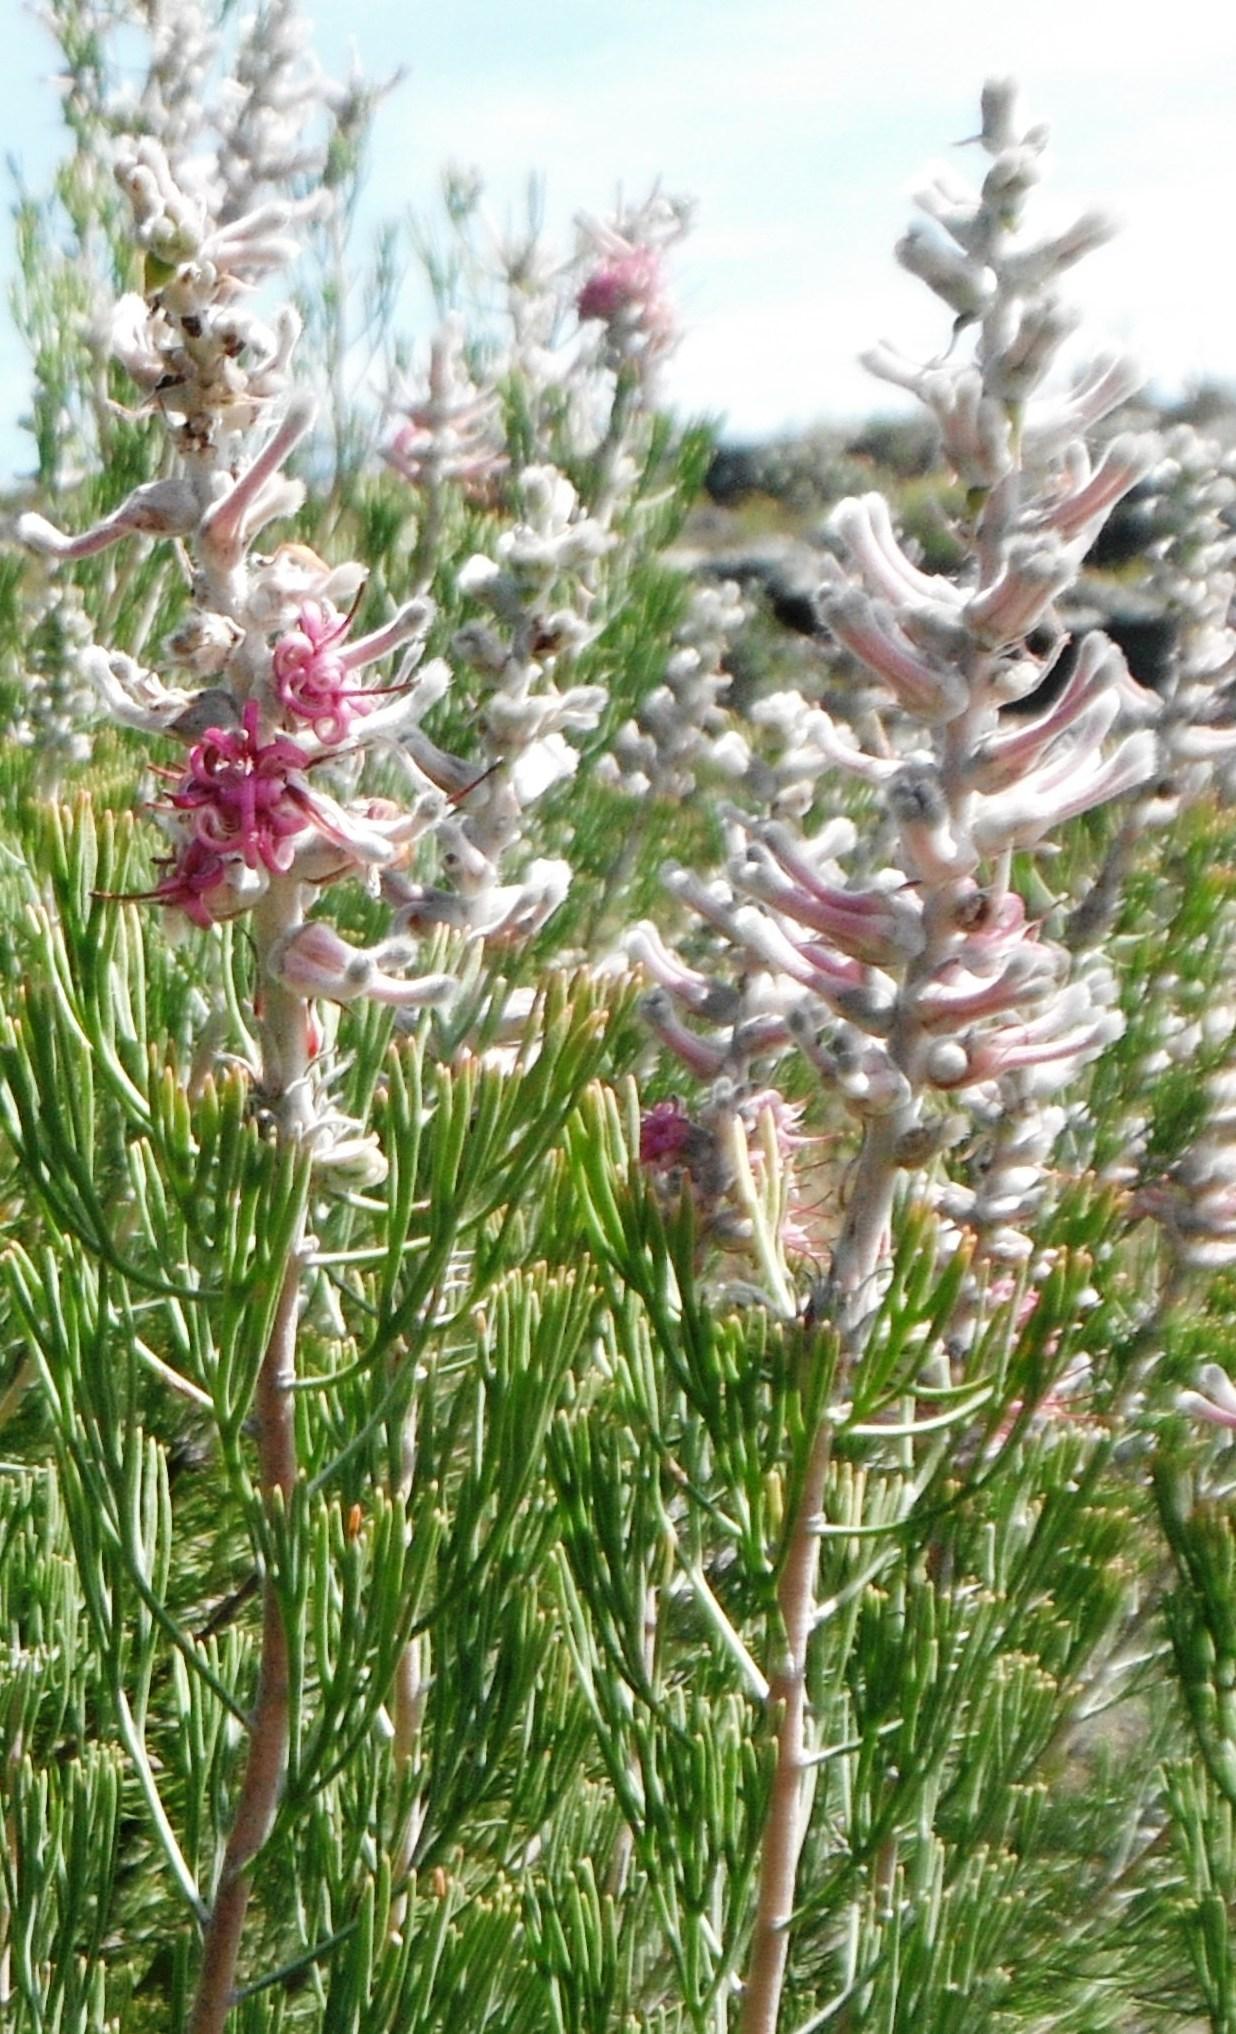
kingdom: Plantae
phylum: Tracheophyta
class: Magnoliopsida
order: Proteales
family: Proteaceae
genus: Paranomus
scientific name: Paranomus bracteolaris
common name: Bokkeveld tree sceptre
